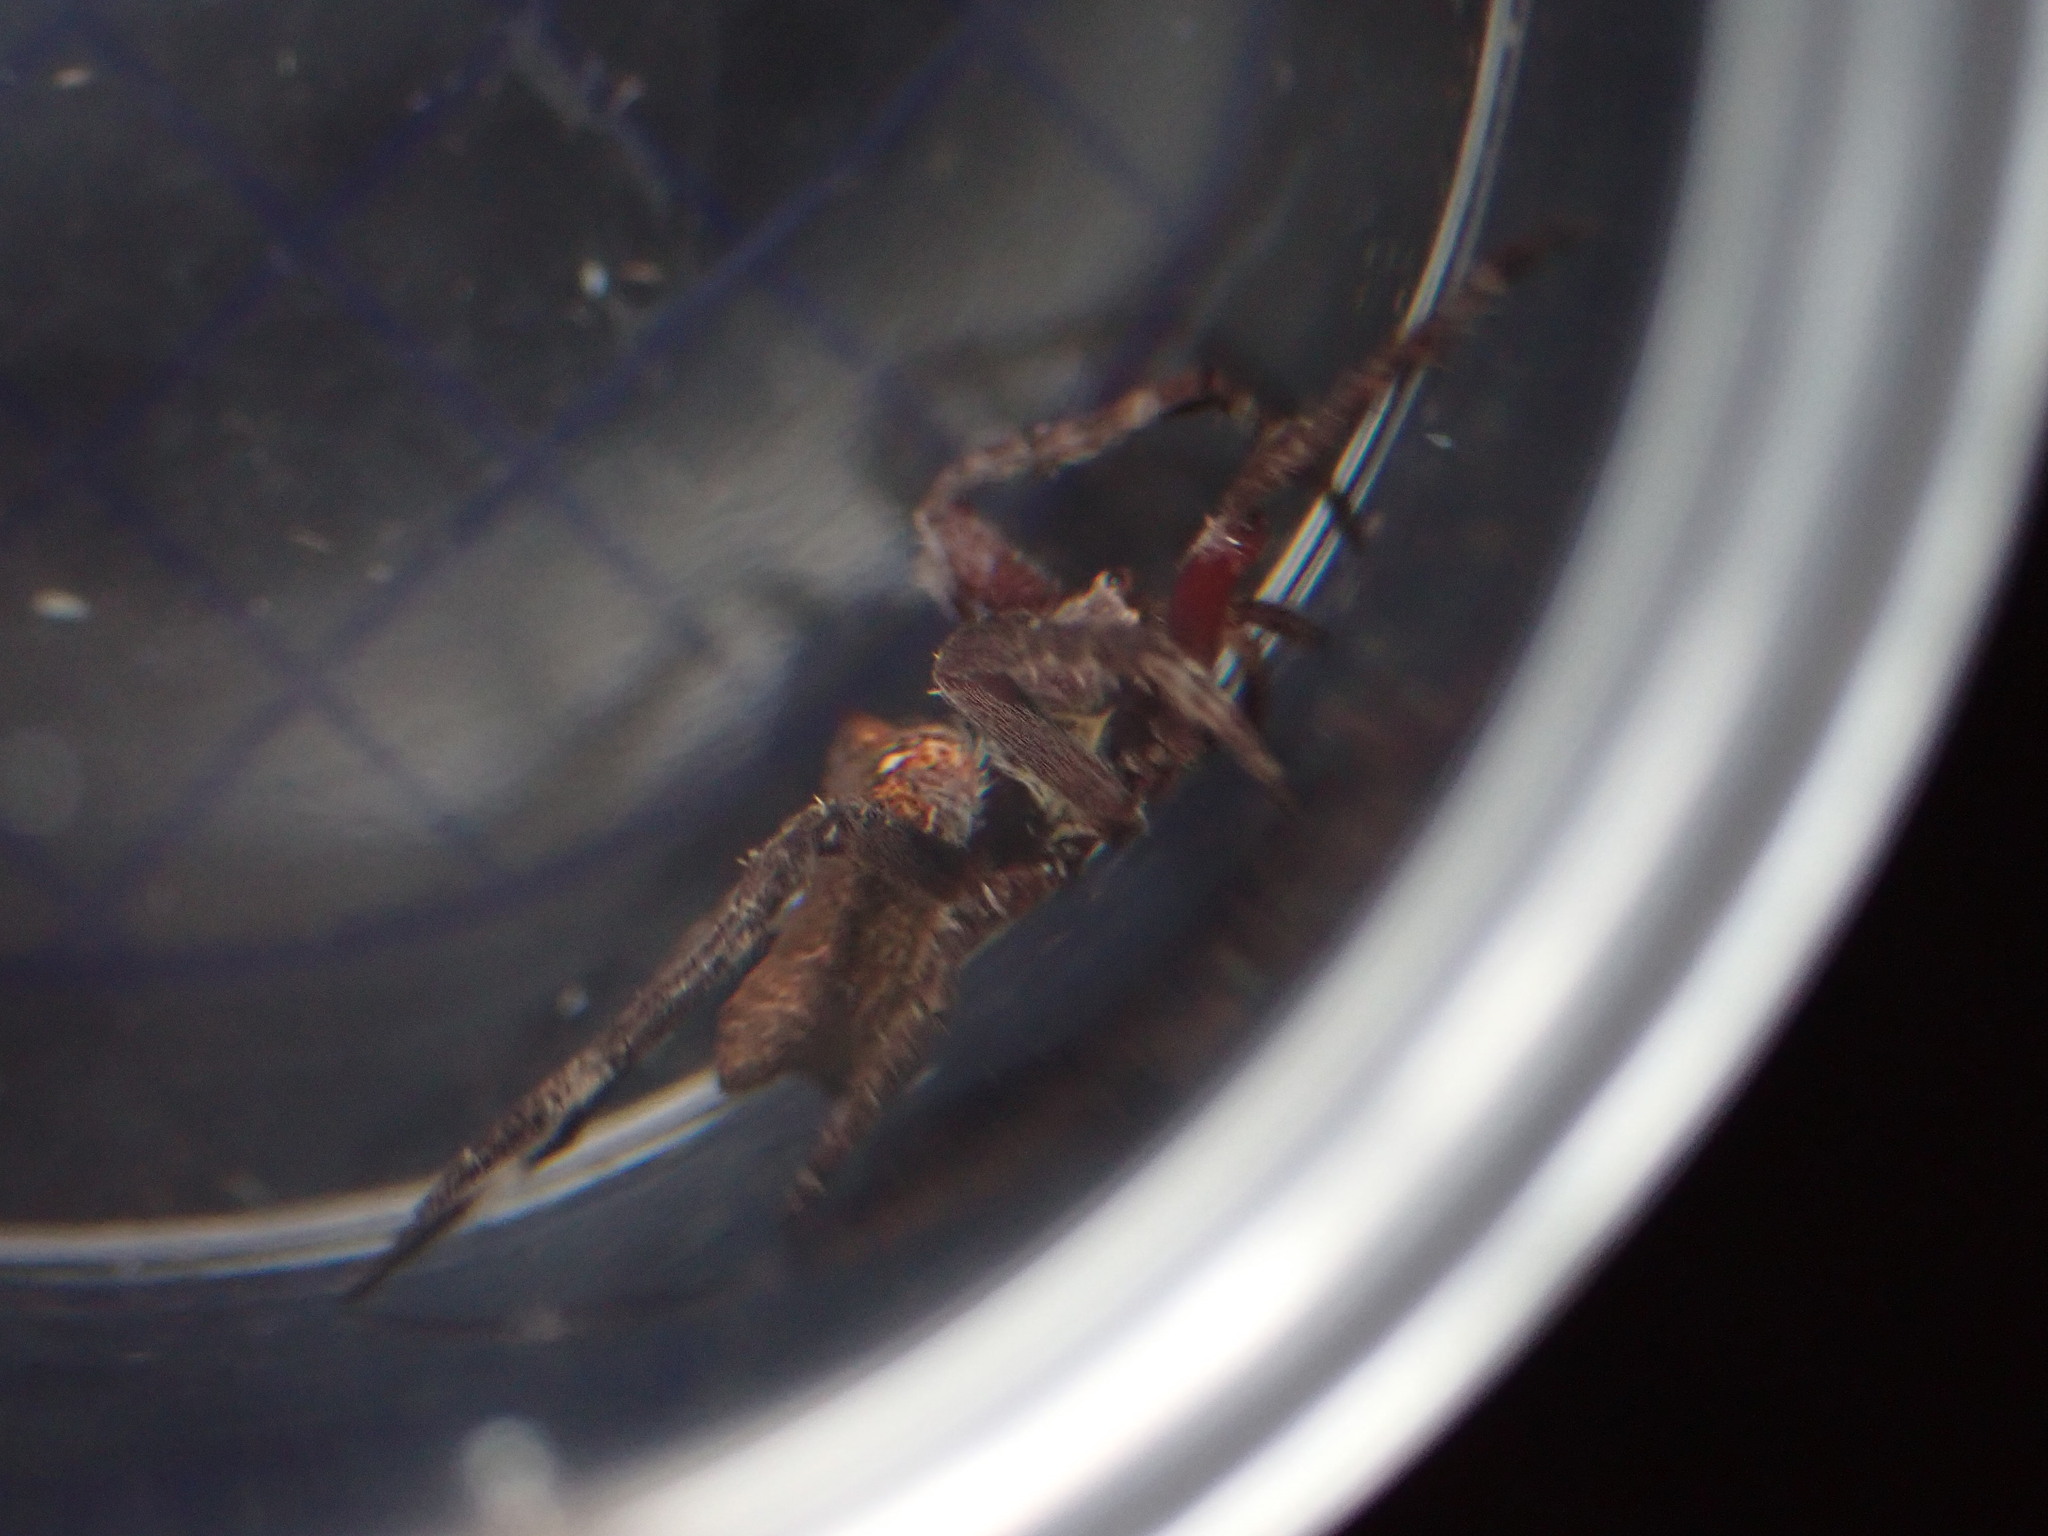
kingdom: Animalia
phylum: Arthropoda
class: Arachnida
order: Araneae
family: Araneidae
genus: Parawixia
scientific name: Parawixia dehaani
